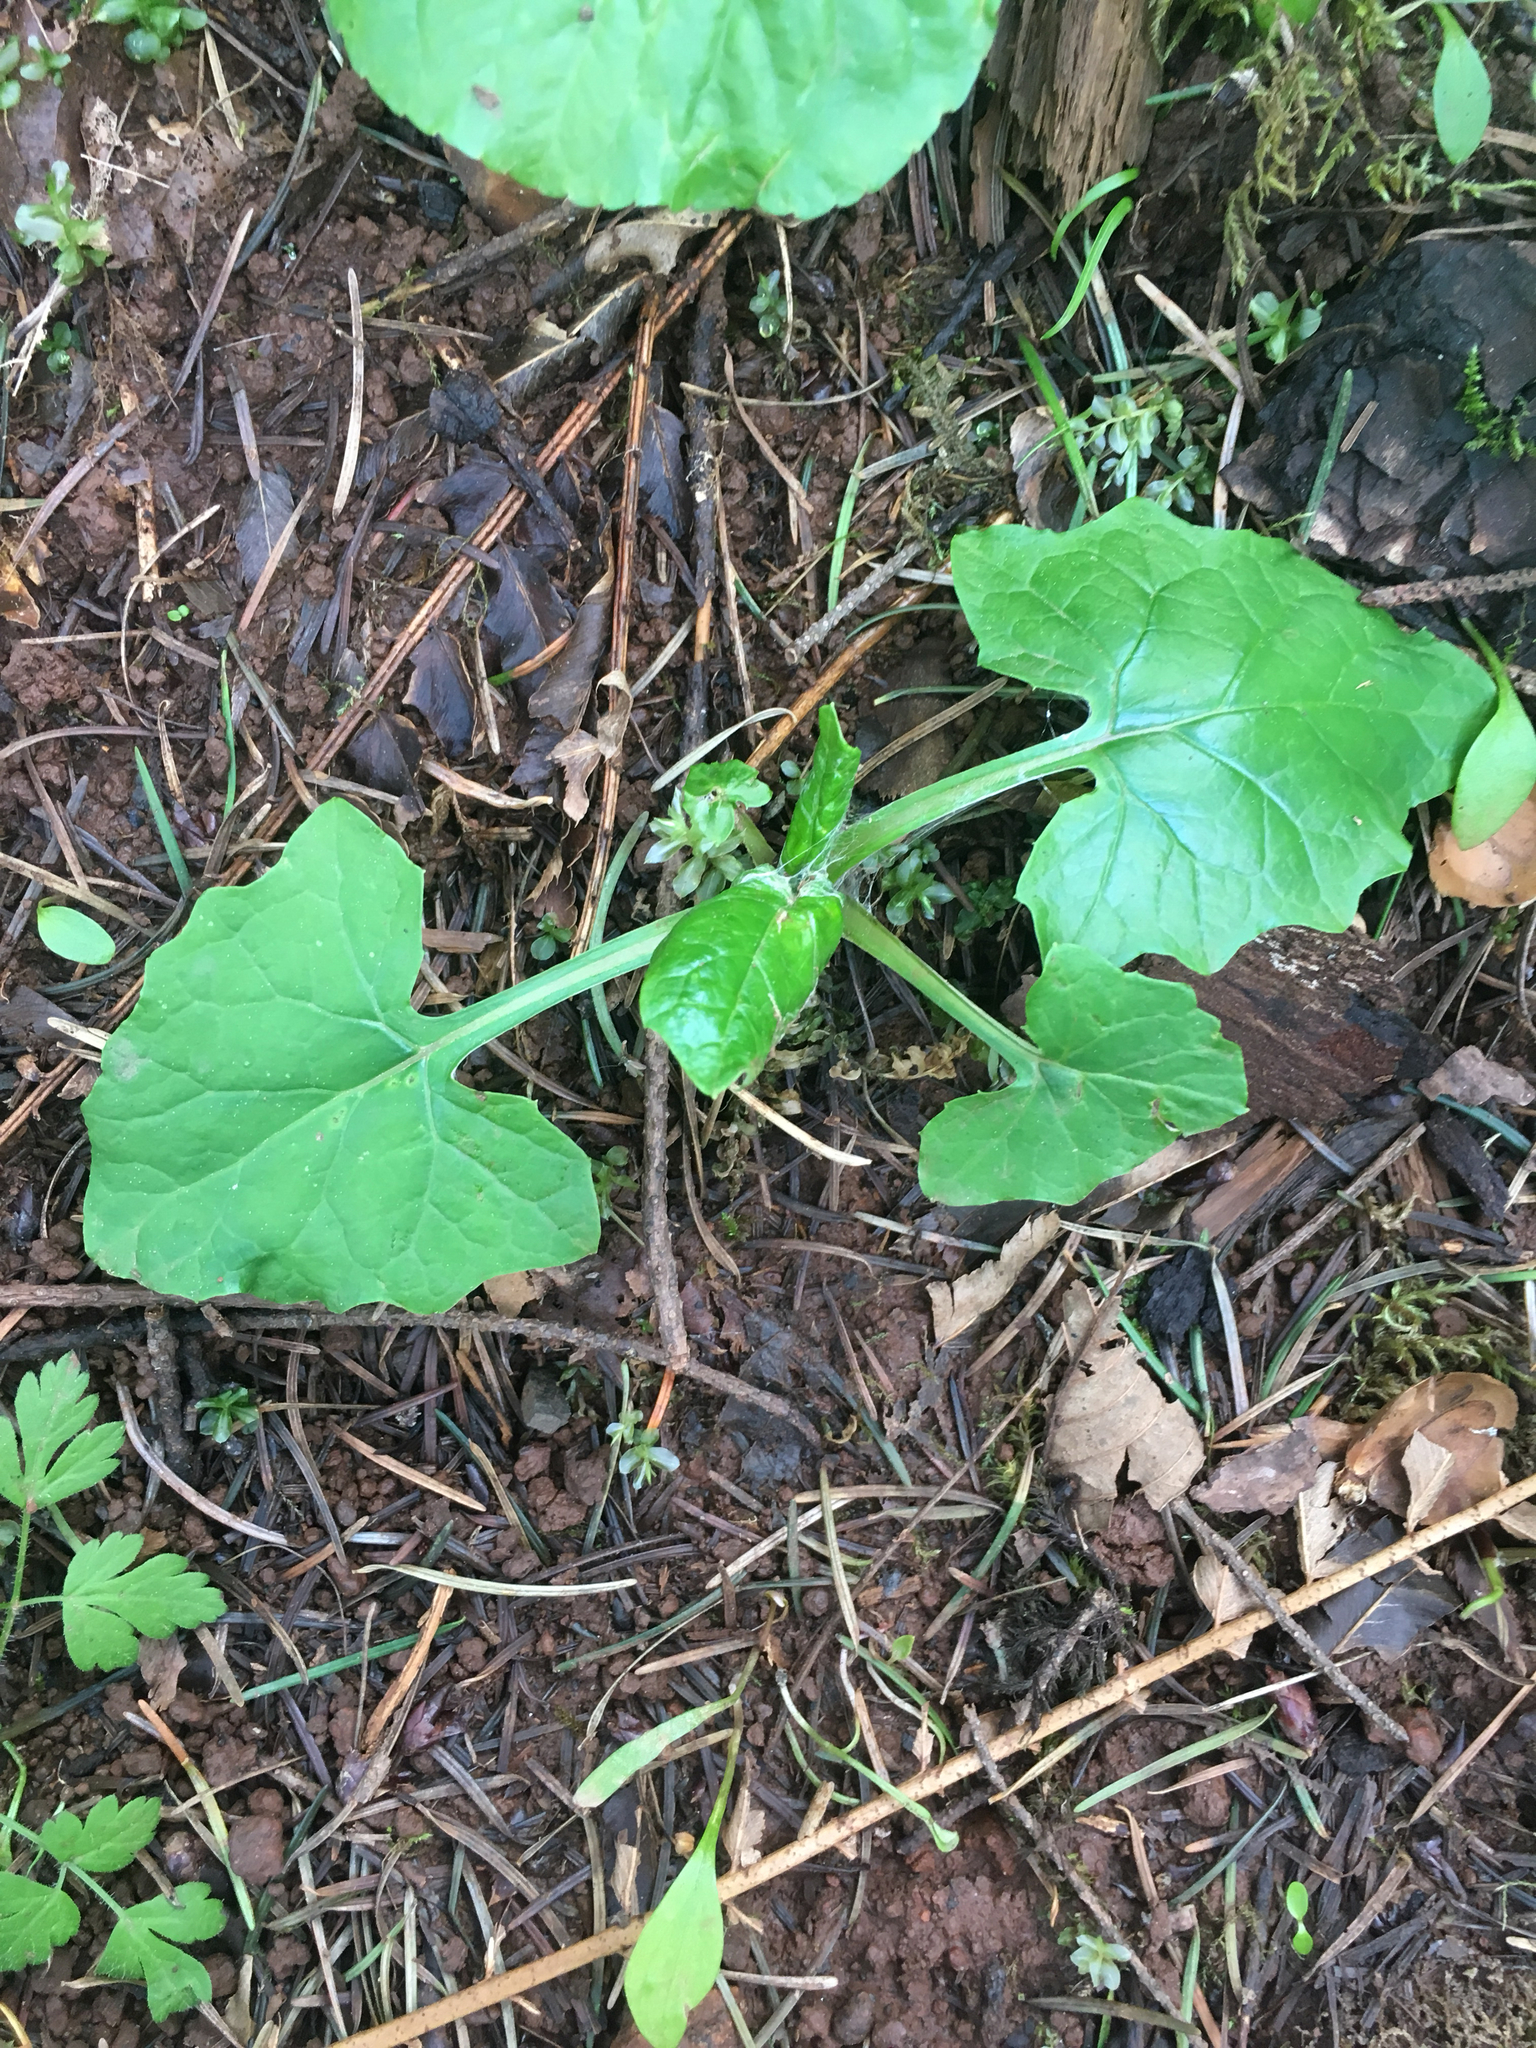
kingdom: Plantae
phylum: Tracheophyta
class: Magnoliopsida
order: Asterales
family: Asteraceae
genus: Adenocaulon
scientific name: Adenocaulon bicolor
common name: Trailplant
